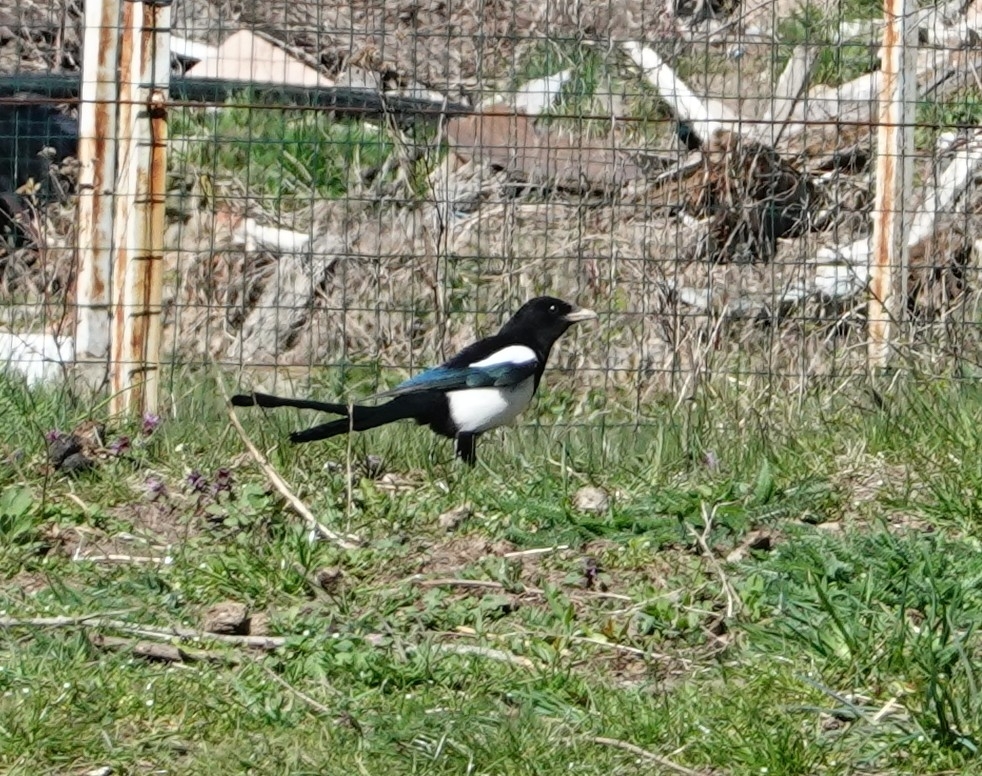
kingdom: Animalia
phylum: Chordata
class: Aves
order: Passeriformes
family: Corvidae
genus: Pica
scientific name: Pica pica
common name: Eurasian magpie
